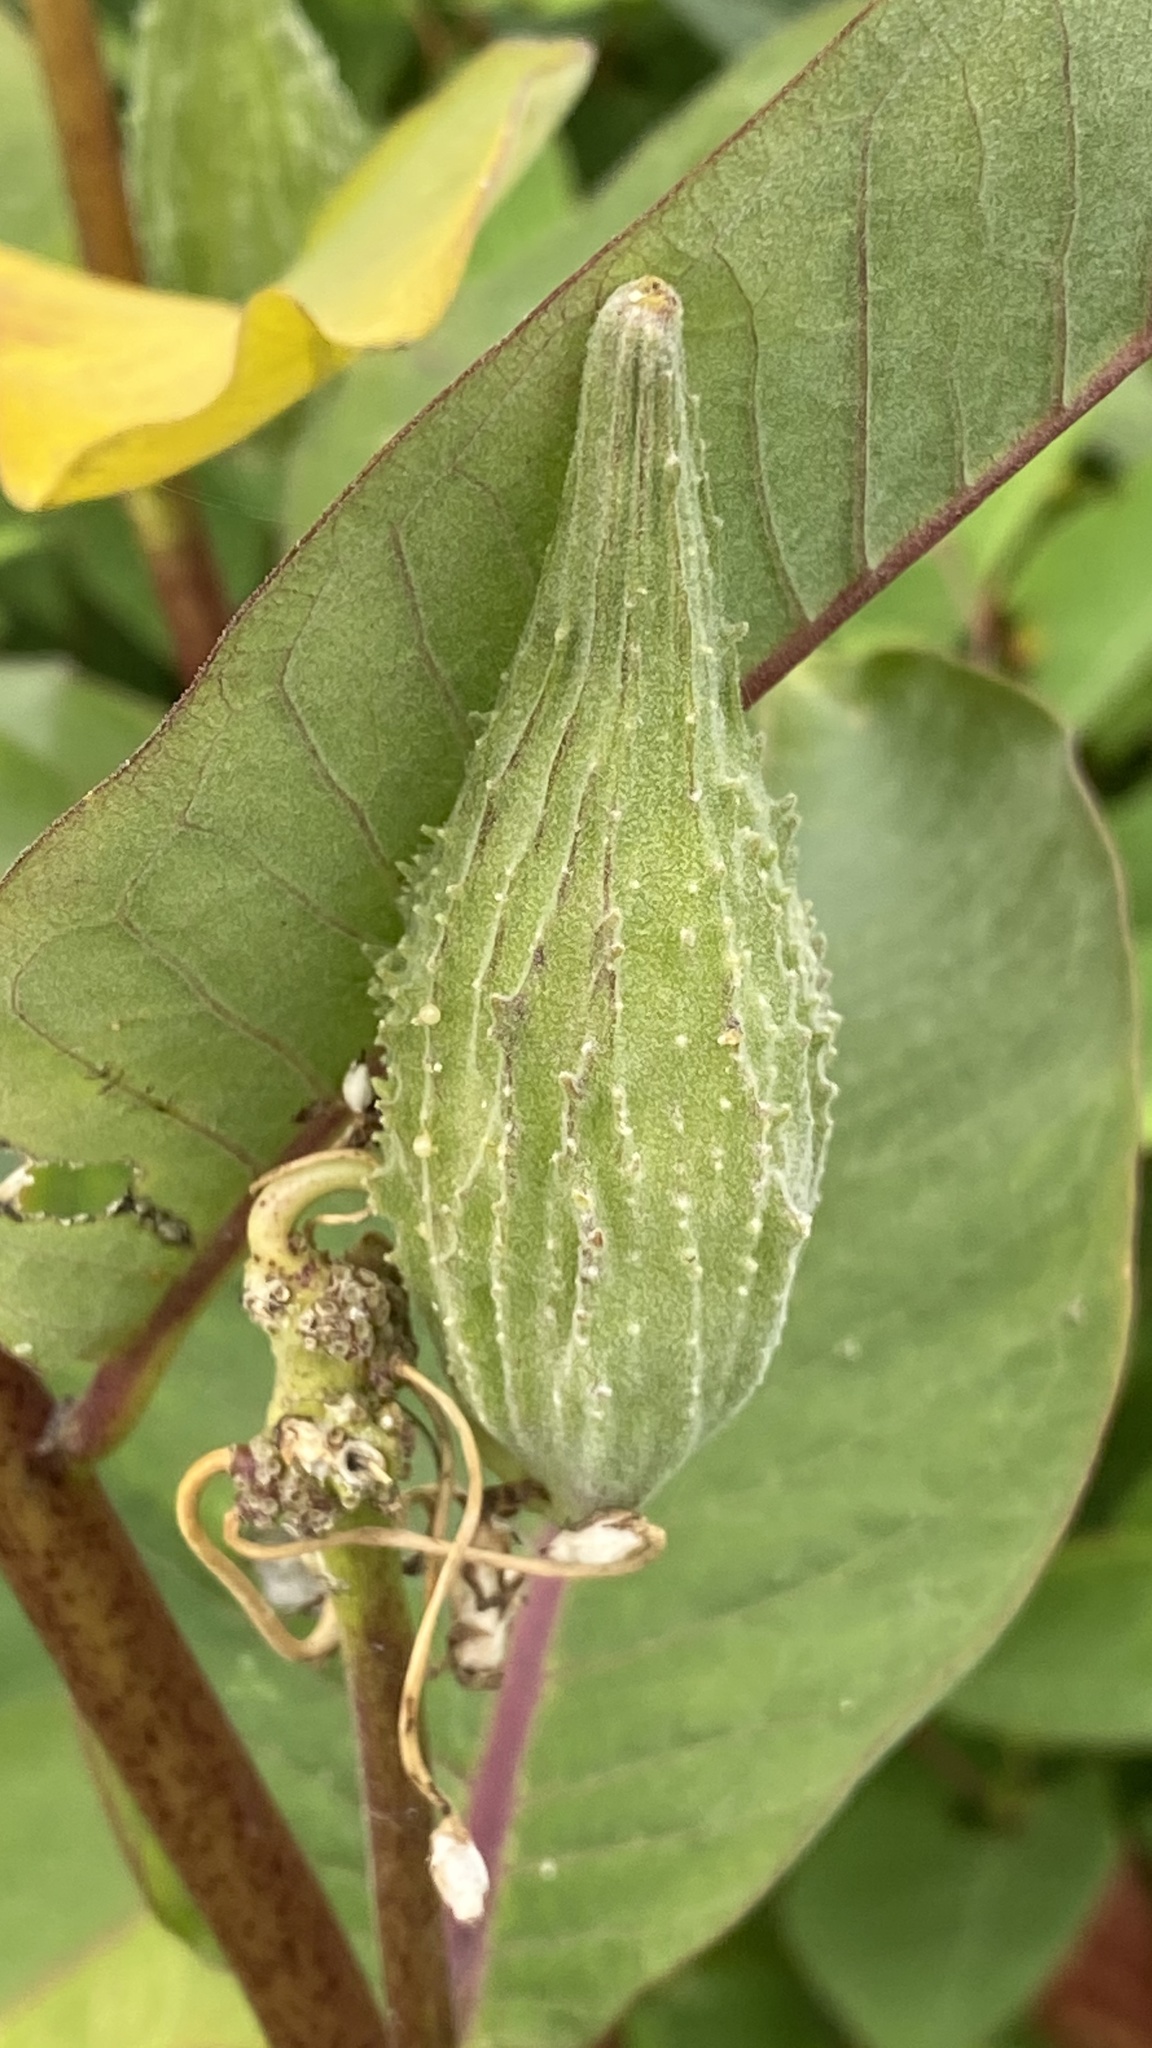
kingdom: Plantae
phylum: Tracheophyta
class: Magnoliopsida
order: Gentianales
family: Apocynaceae
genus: Asclepias
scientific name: Asclepias syriaca
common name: Common milkweed
